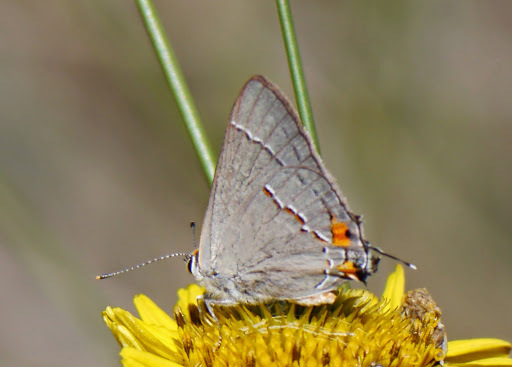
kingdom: Animalia
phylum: Arthropoda
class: Insecta
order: Lepidoptera
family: Lycaenidae
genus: Strymon
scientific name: Strymon melinus
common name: Gray hairstreak
